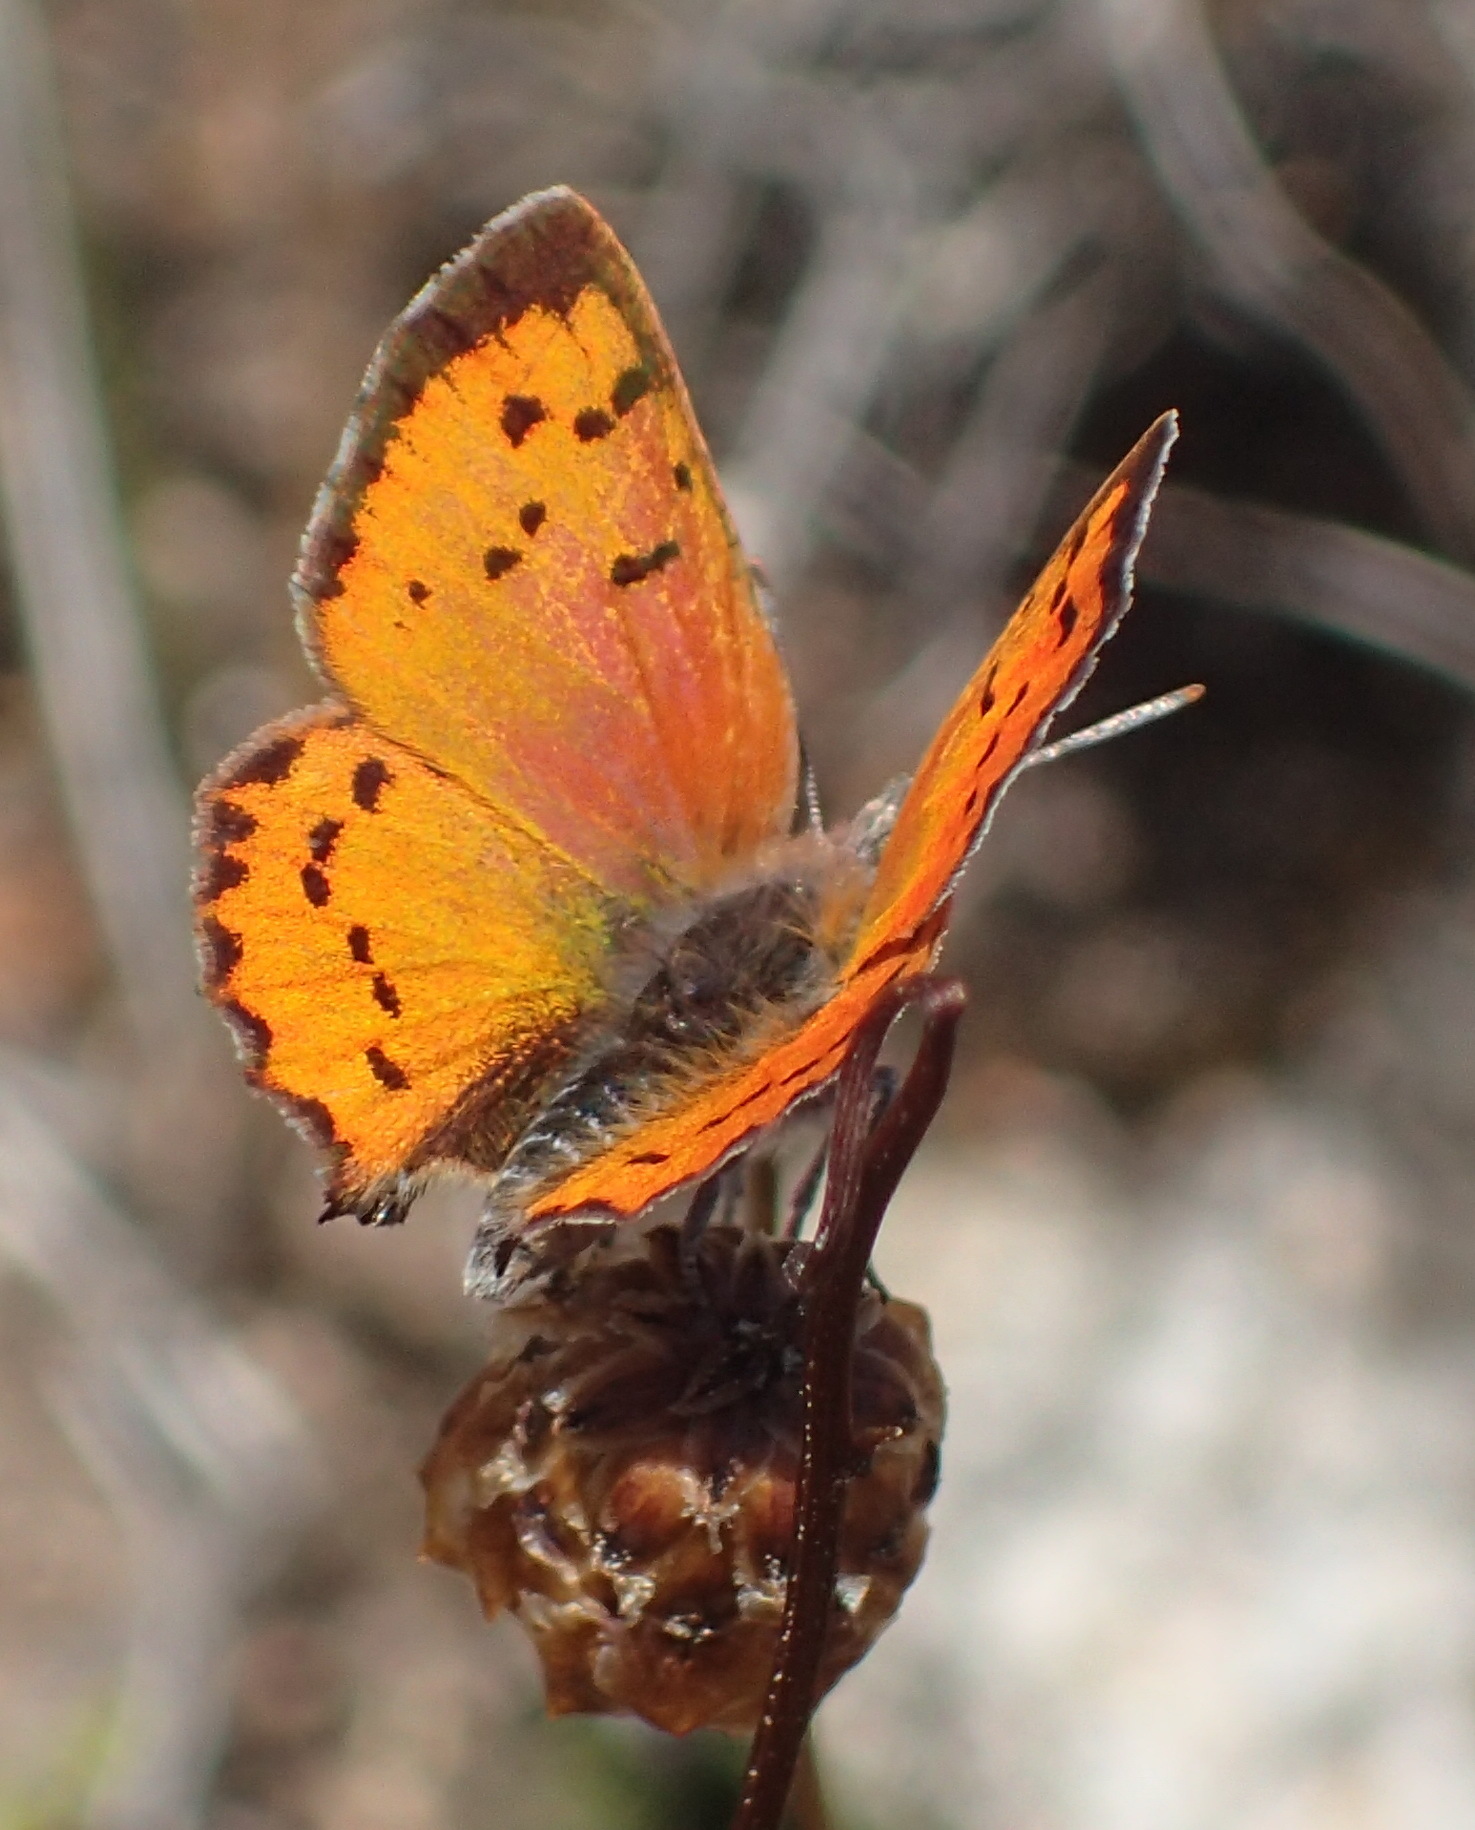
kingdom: Animalia
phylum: Arthropoda
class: Insecta
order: Lepidoptera
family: Lycaenidae
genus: Zeritis
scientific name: Zeritis chrysaor
